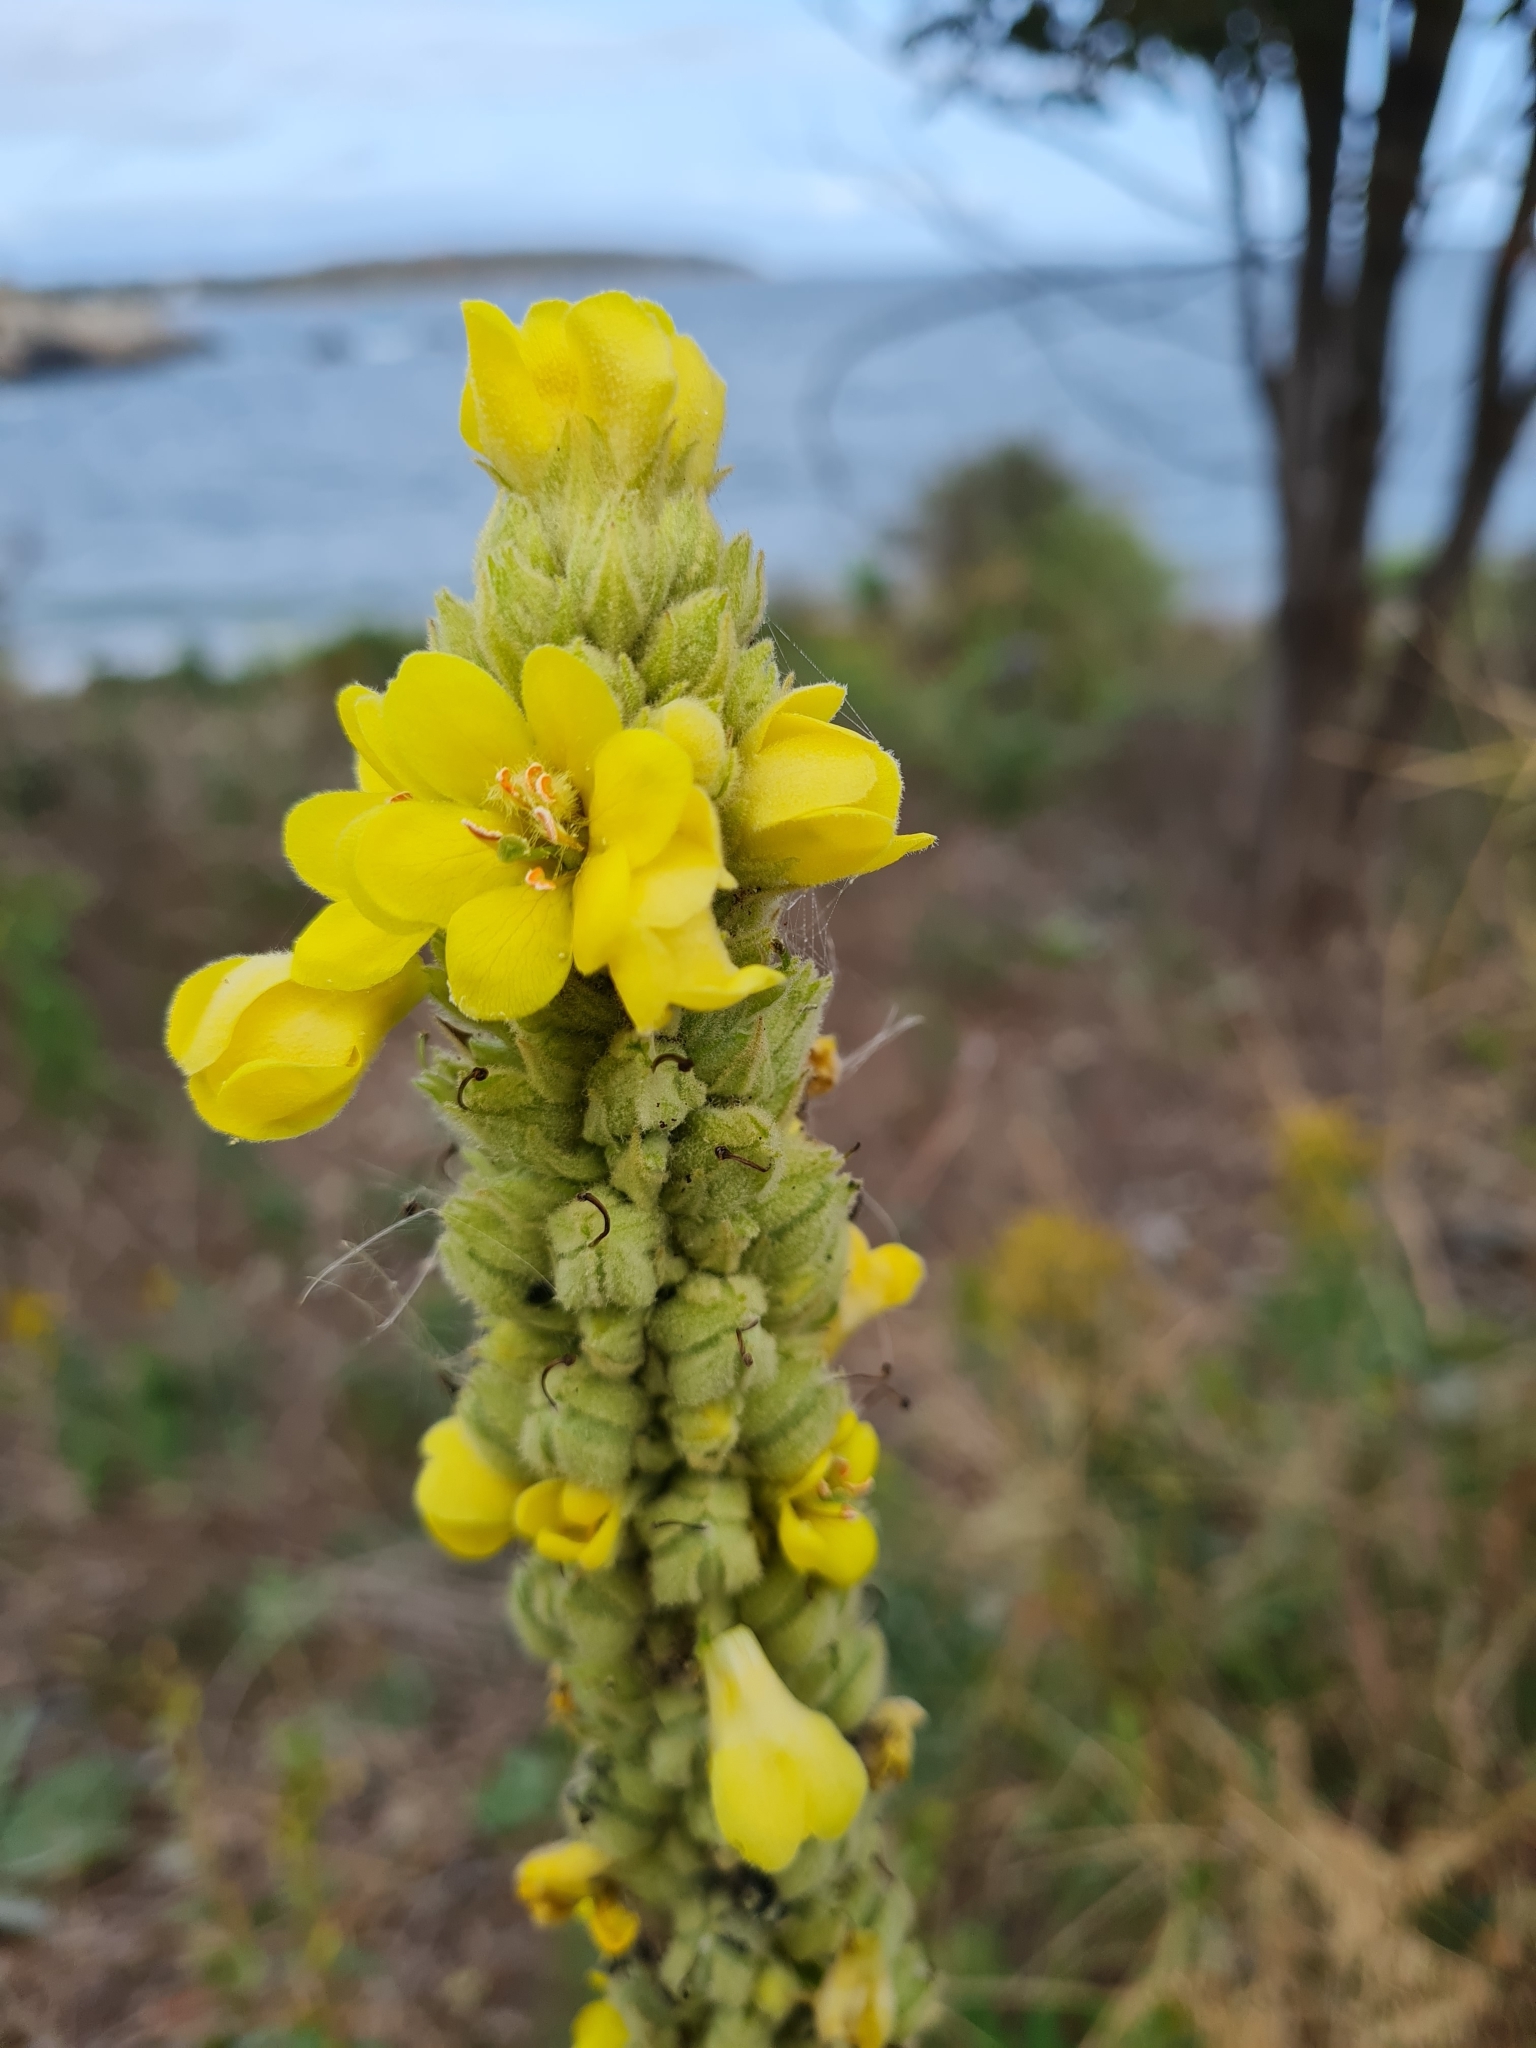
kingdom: Plantae
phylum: Tracheophyta
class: Magnoliopsida
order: Lamiales
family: Scrophulariaceae
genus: Verbascum
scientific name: Verbascum thapsus
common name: Common mullein
